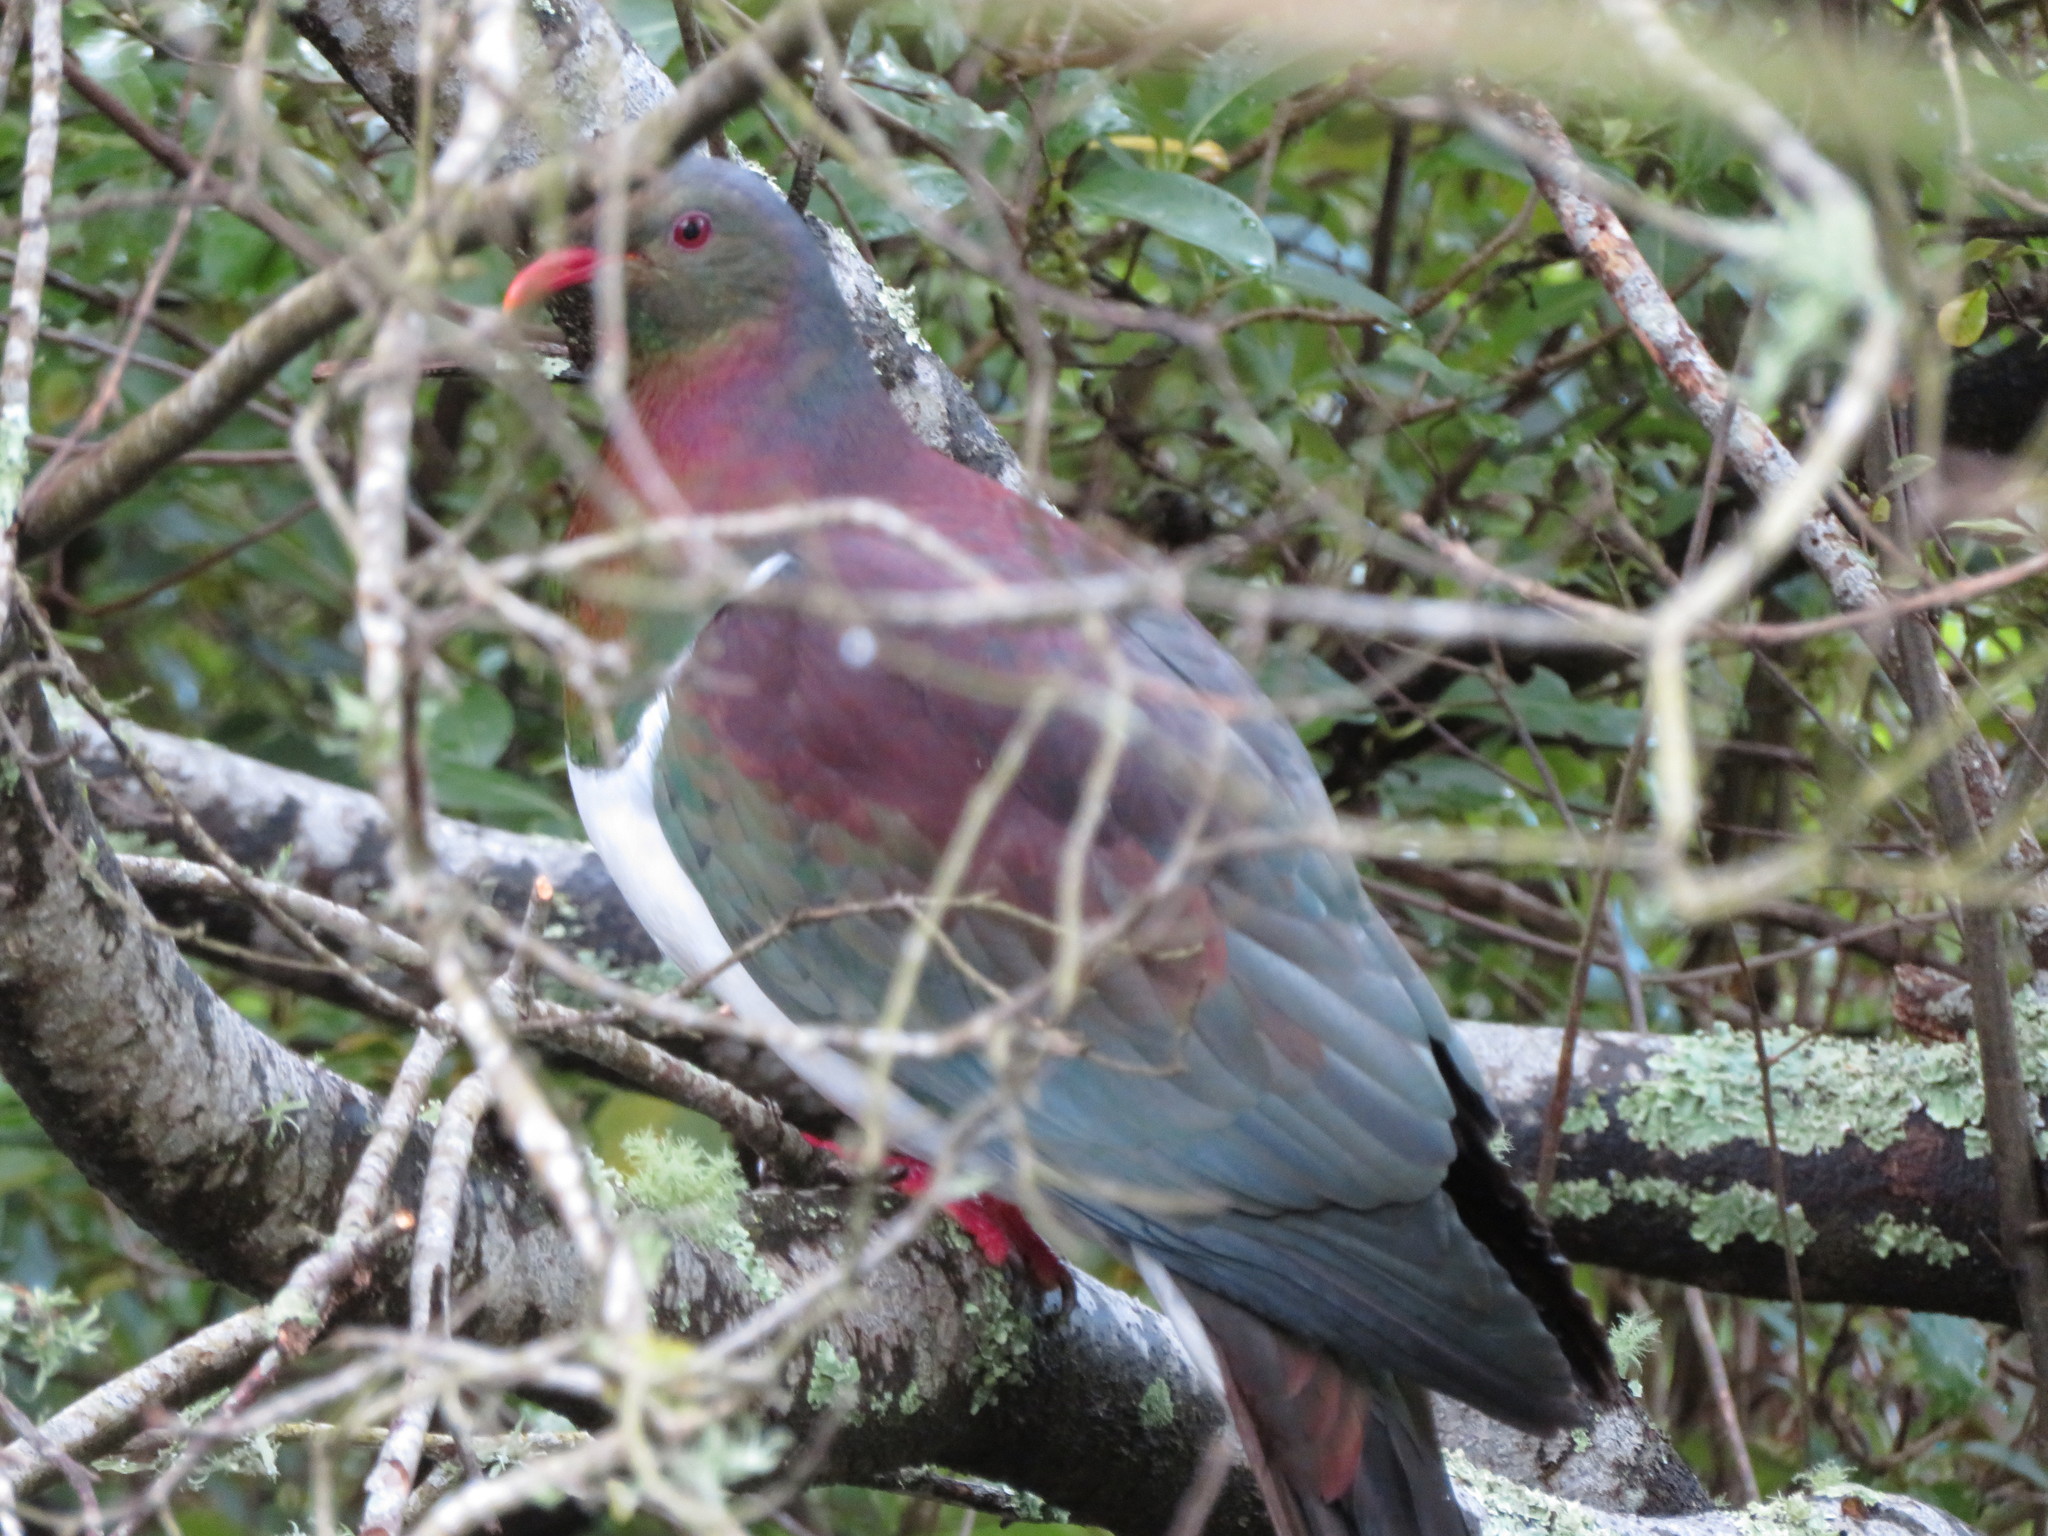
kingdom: Animalia
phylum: Chordata
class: Aves
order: Columbiformes
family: Columbidae
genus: Hemiphaga
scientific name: Hemiphaga novaeseelandiae
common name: New zealand pigeon
